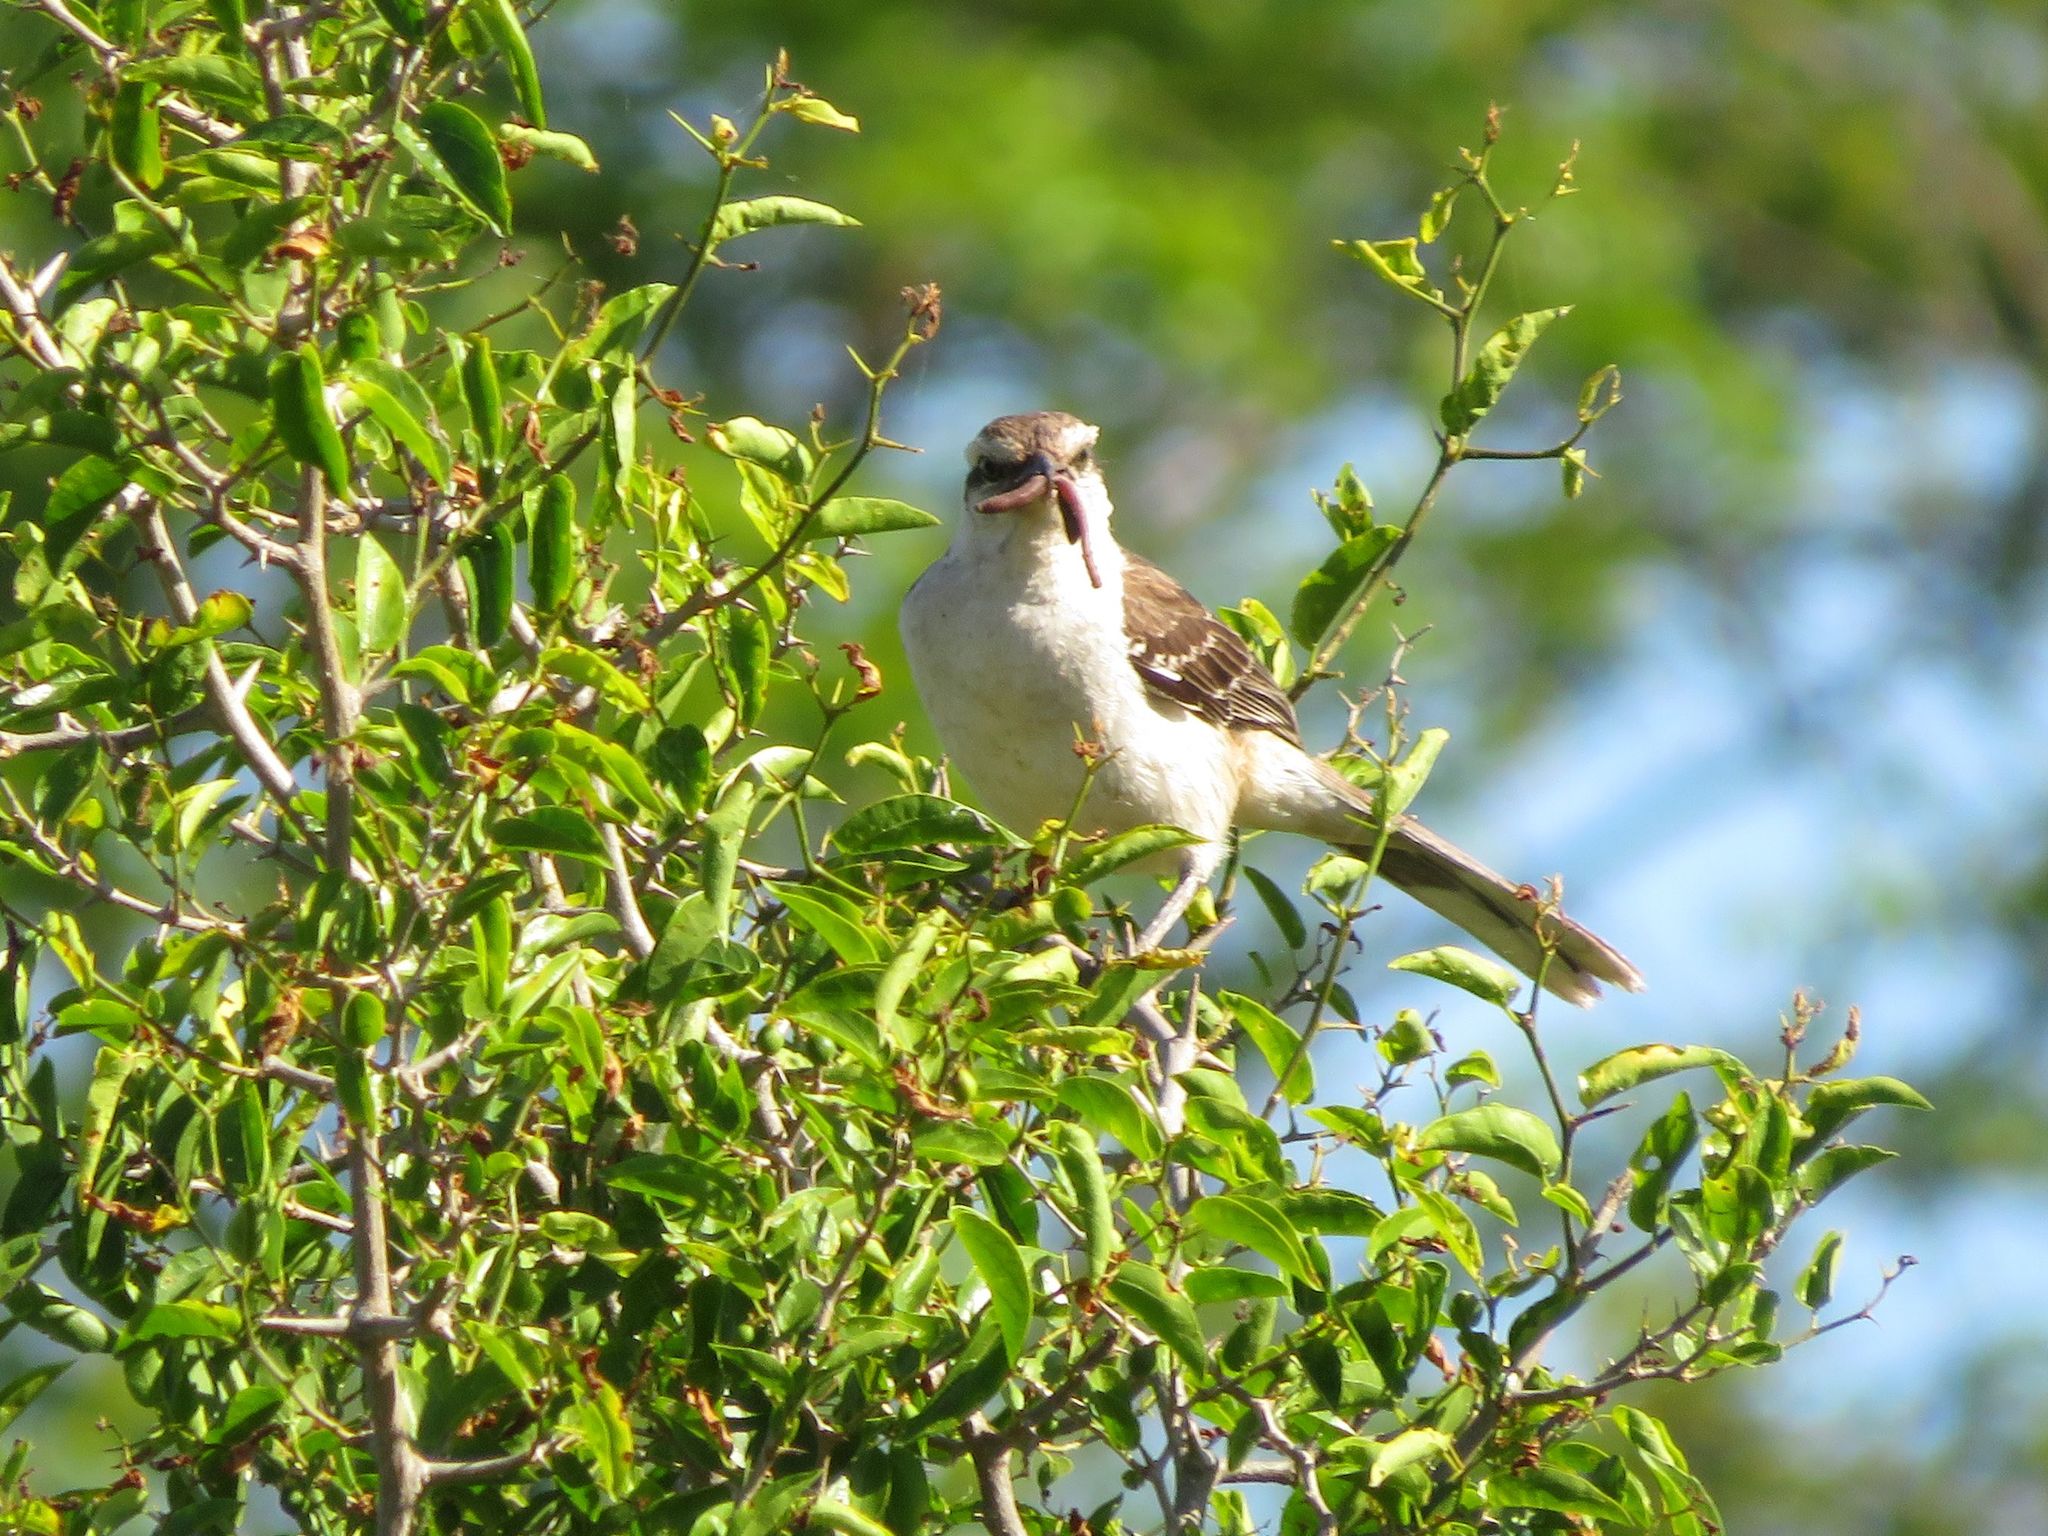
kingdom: Animalia
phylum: Chordata
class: Aves
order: Passeriformes
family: Mimidae
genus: Mimus
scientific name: Mimus saturninus
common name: Chalk-browed mockingbird
